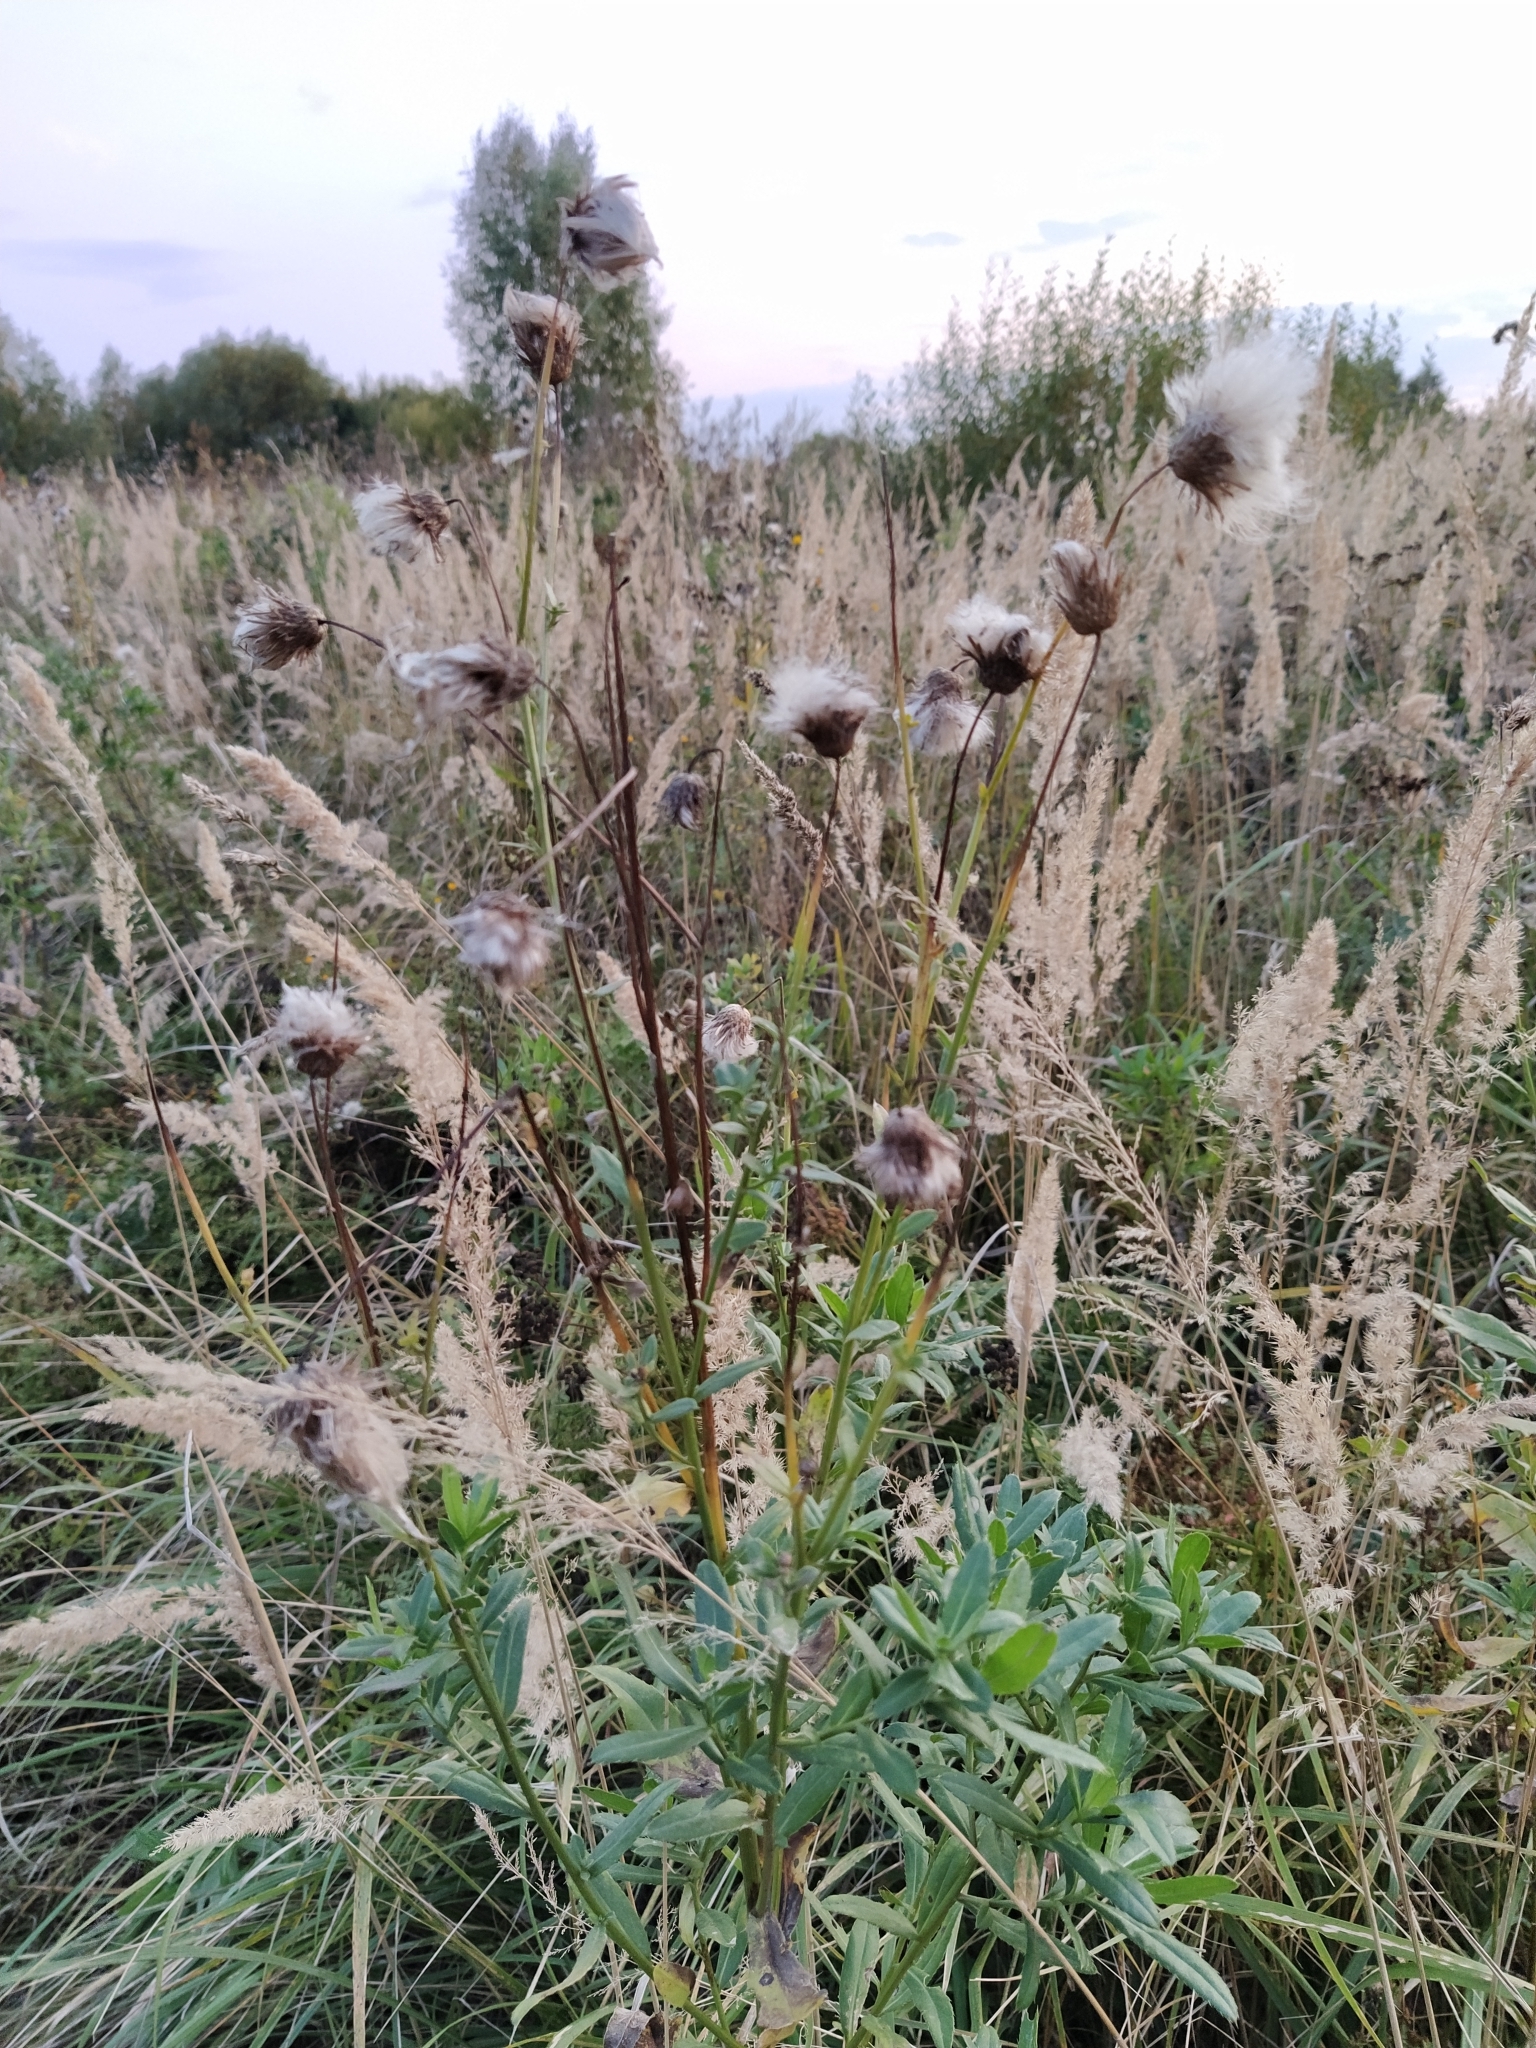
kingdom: Plantae
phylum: Tracheophyta
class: Magnoliopsida
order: Asterales
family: Asteraceae
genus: Cirsium
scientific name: Cirsium arvense
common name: Creeping thistle
